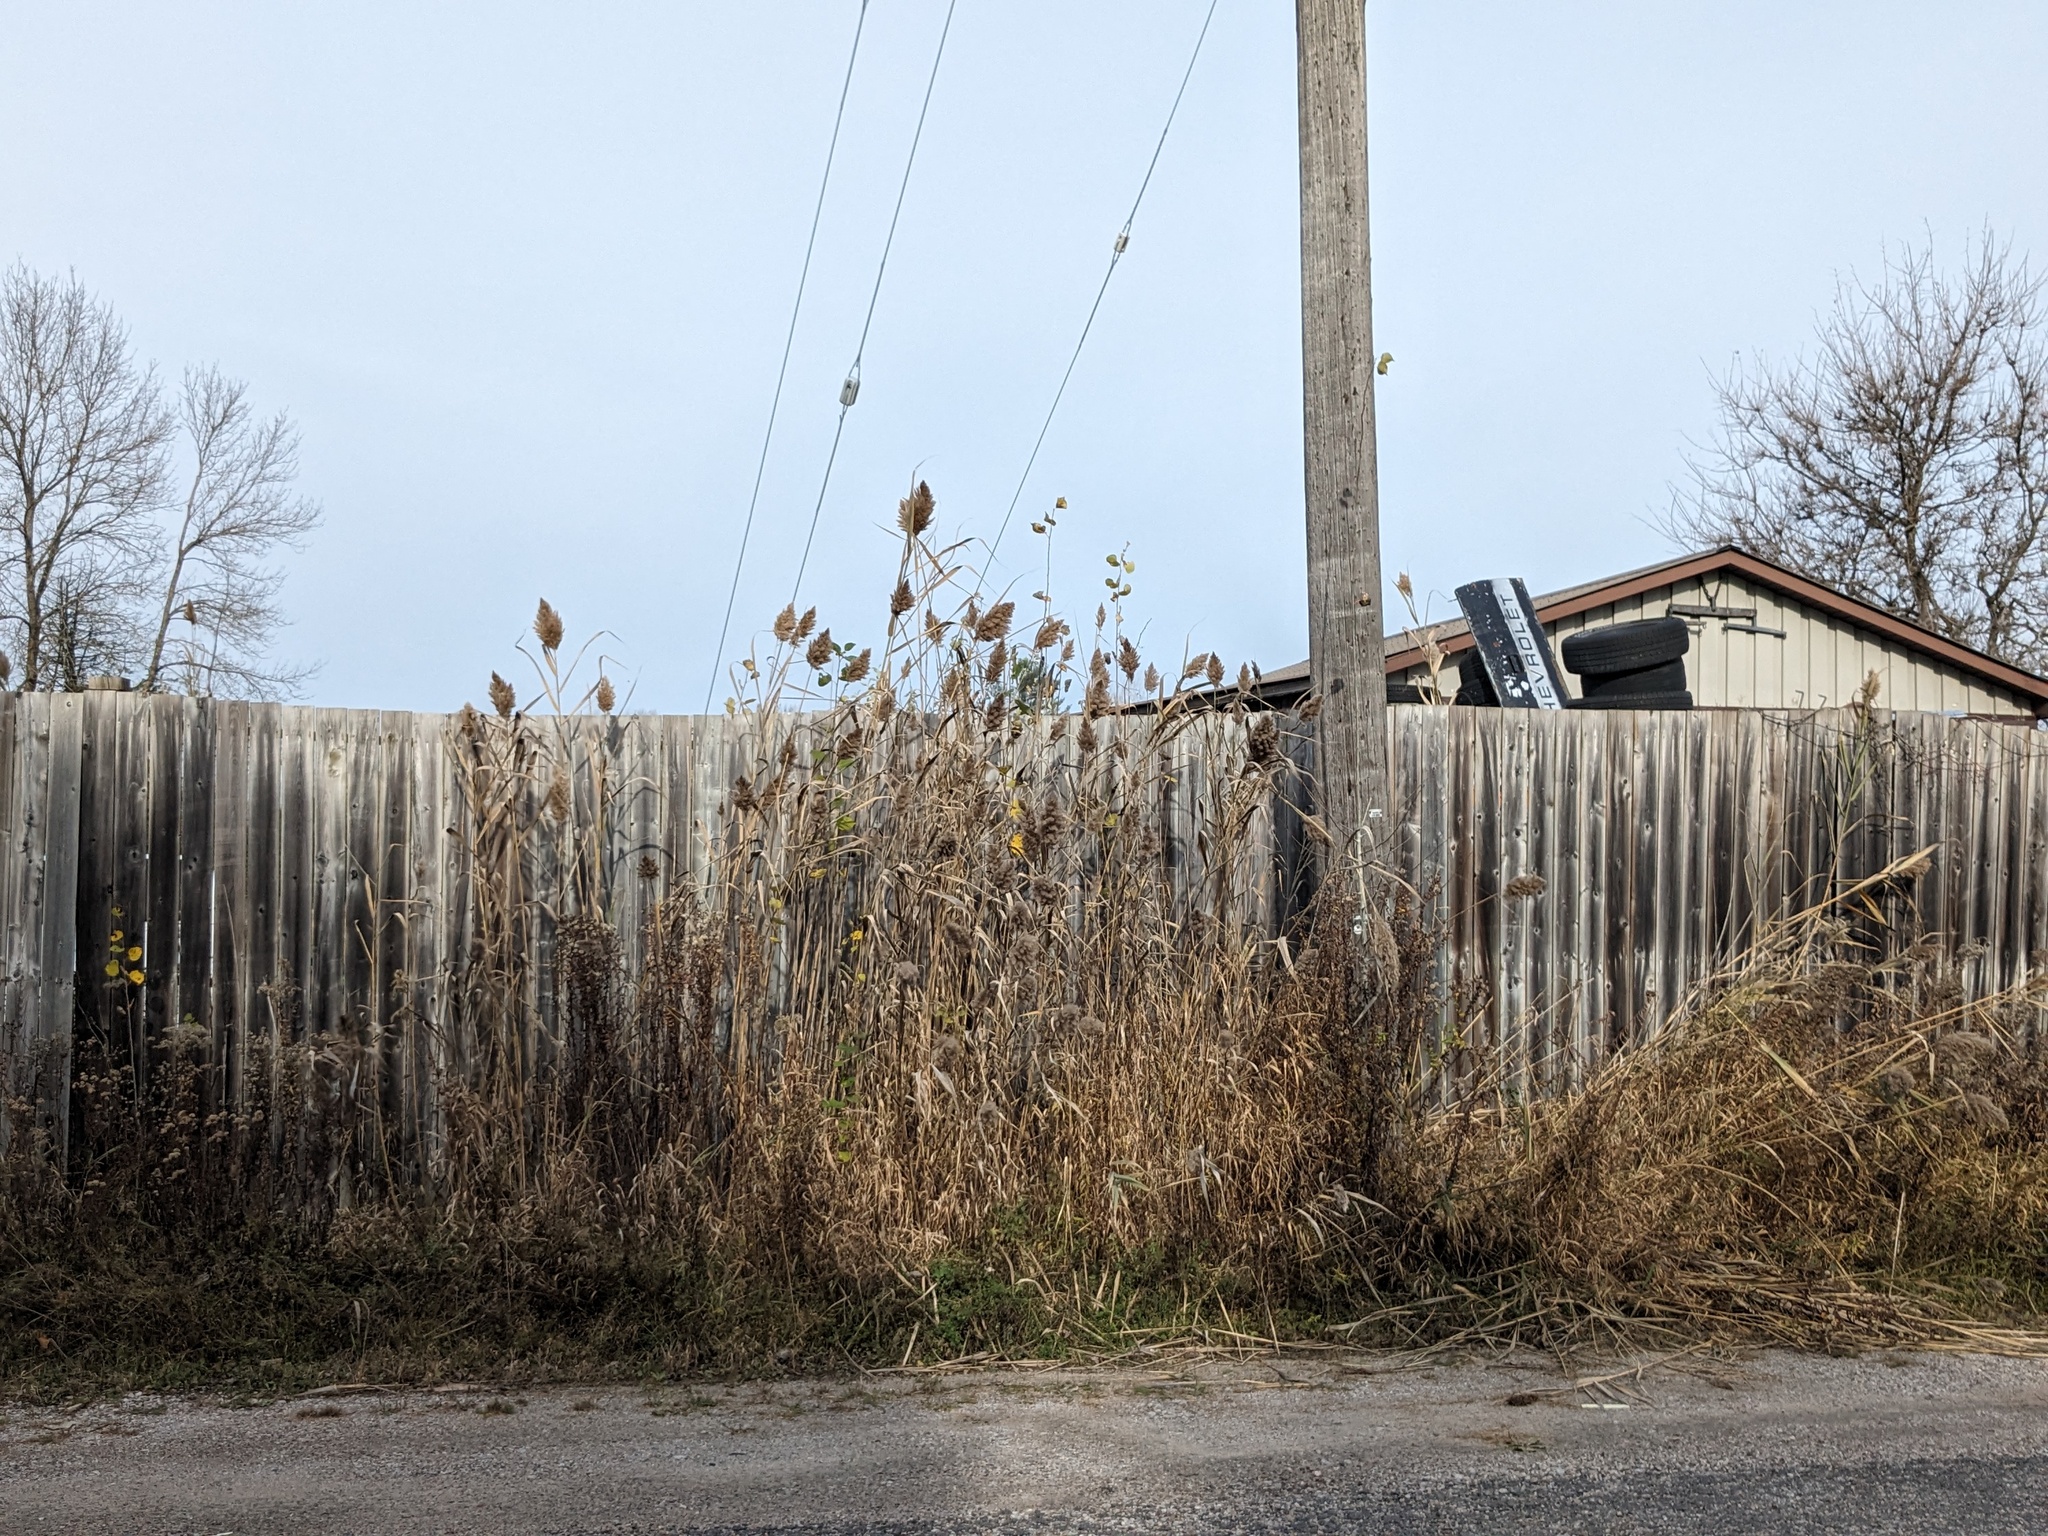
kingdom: Plantae
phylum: Tracheophyta
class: Liliopsida
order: Poales
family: Poaceae
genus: Phragmites
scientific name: Phragmites australis
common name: Common reed
